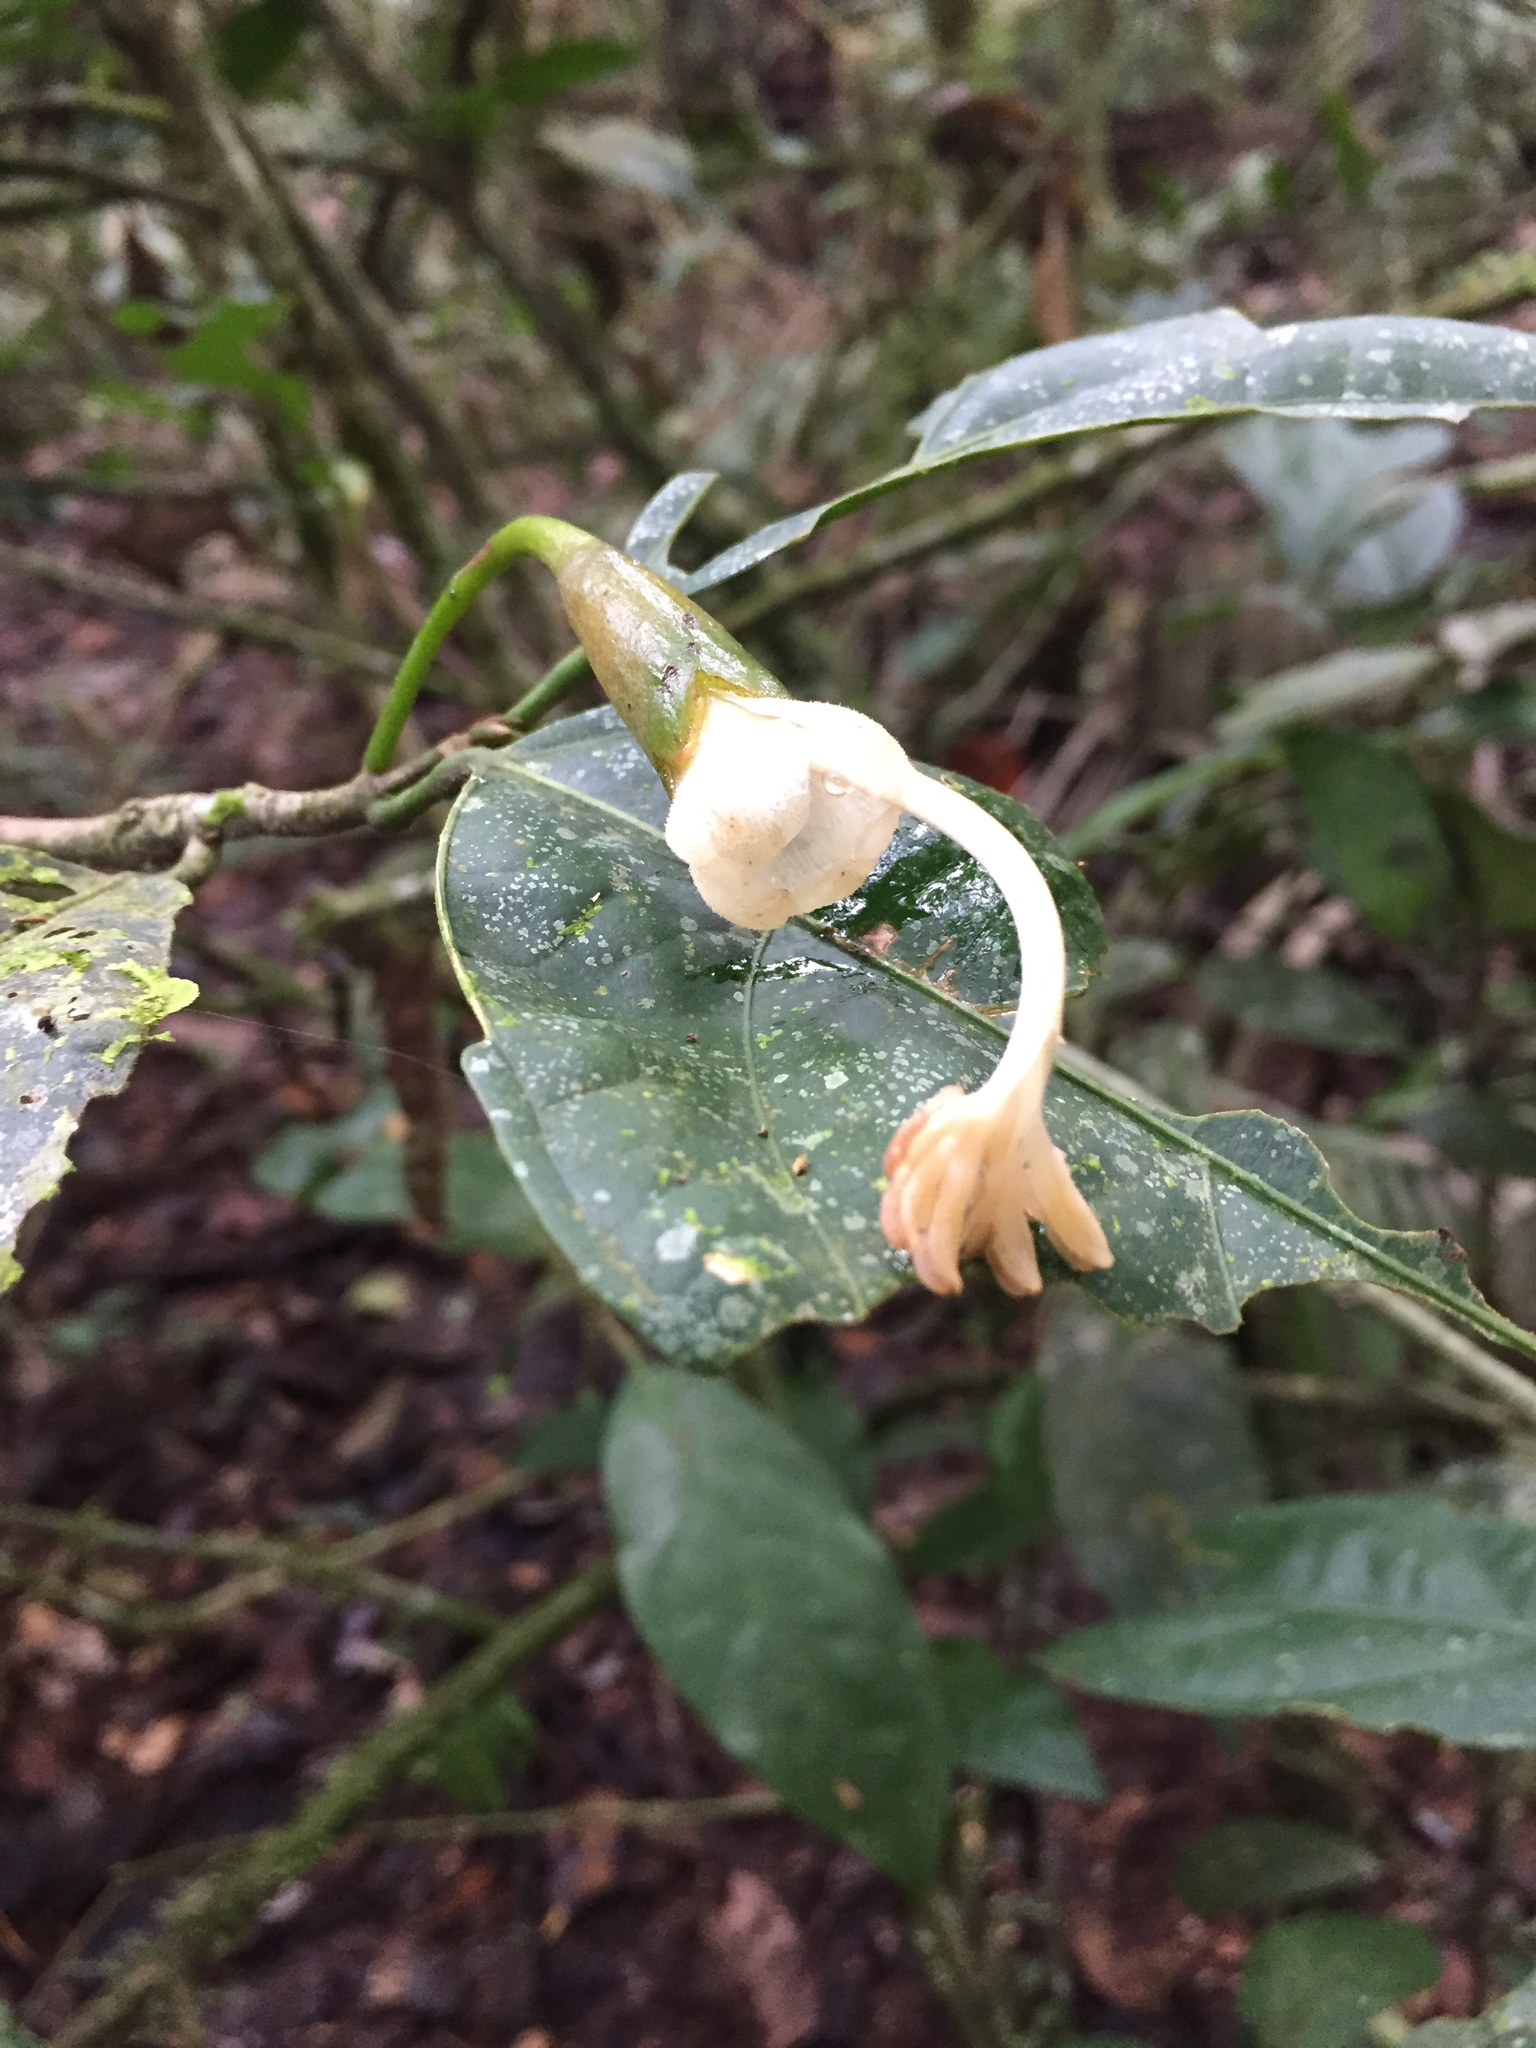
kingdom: Plantae
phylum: Tracheophyta
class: Magnoliopsida
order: Malvales
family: Malvaceae
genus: Matisia
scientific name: Matisia oblongifolia
